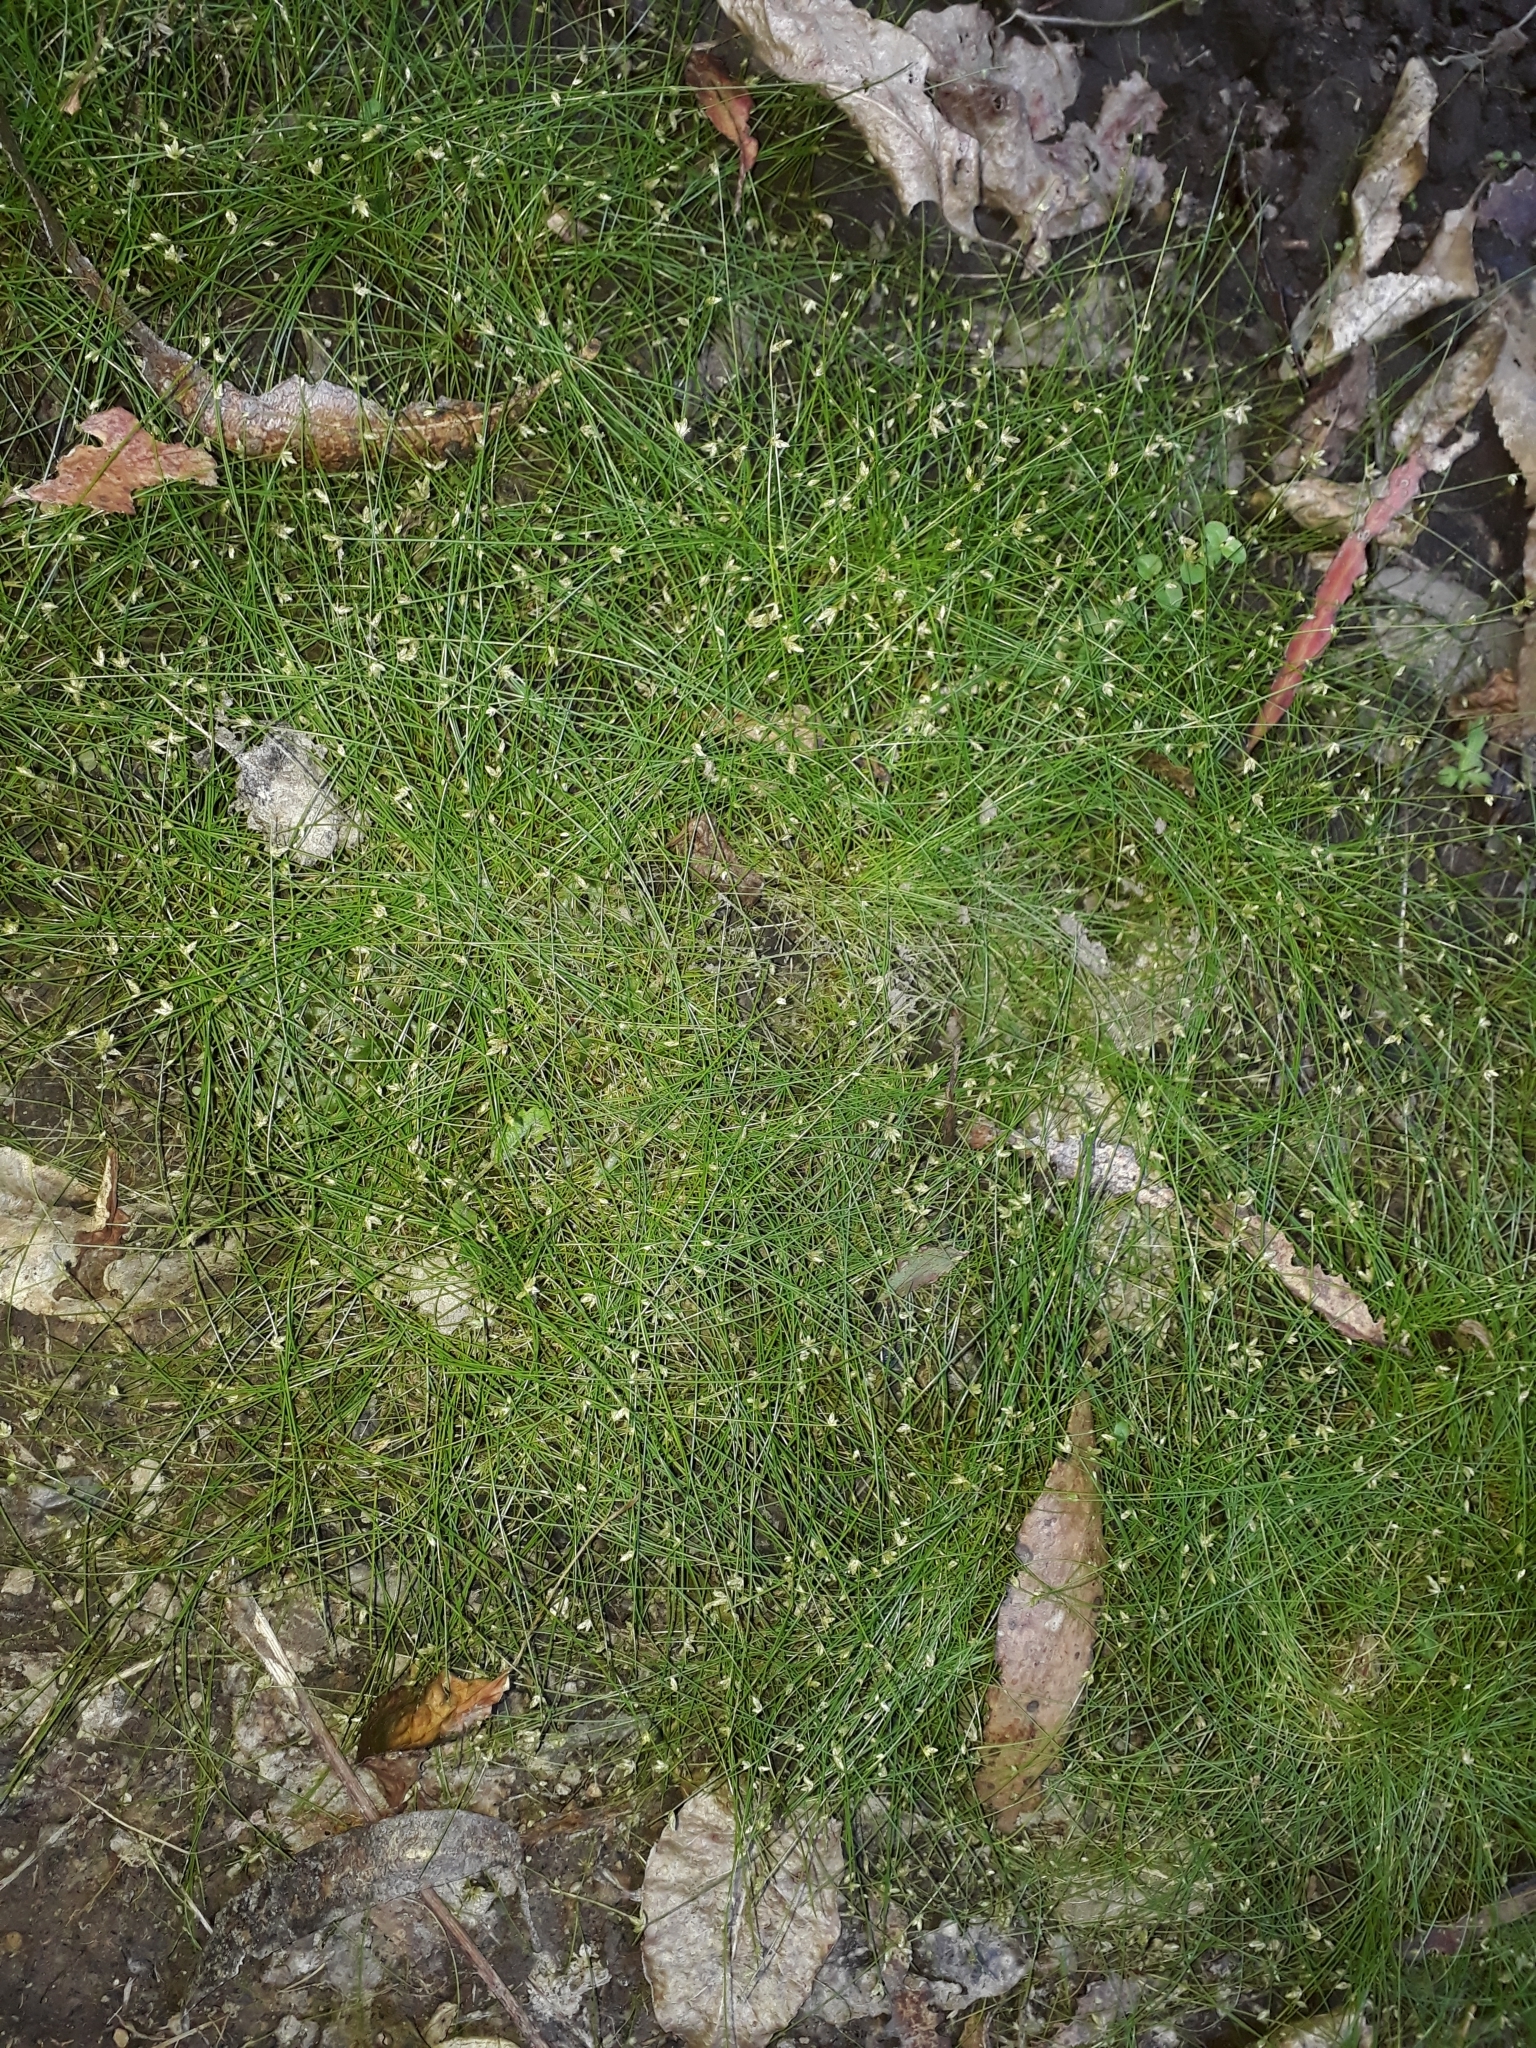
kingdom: Plantae
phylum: Tracheophyta
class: Liliopsida
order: Poales
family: Cyperaceae
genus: Isolepis
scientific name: Isolepis reticularis
